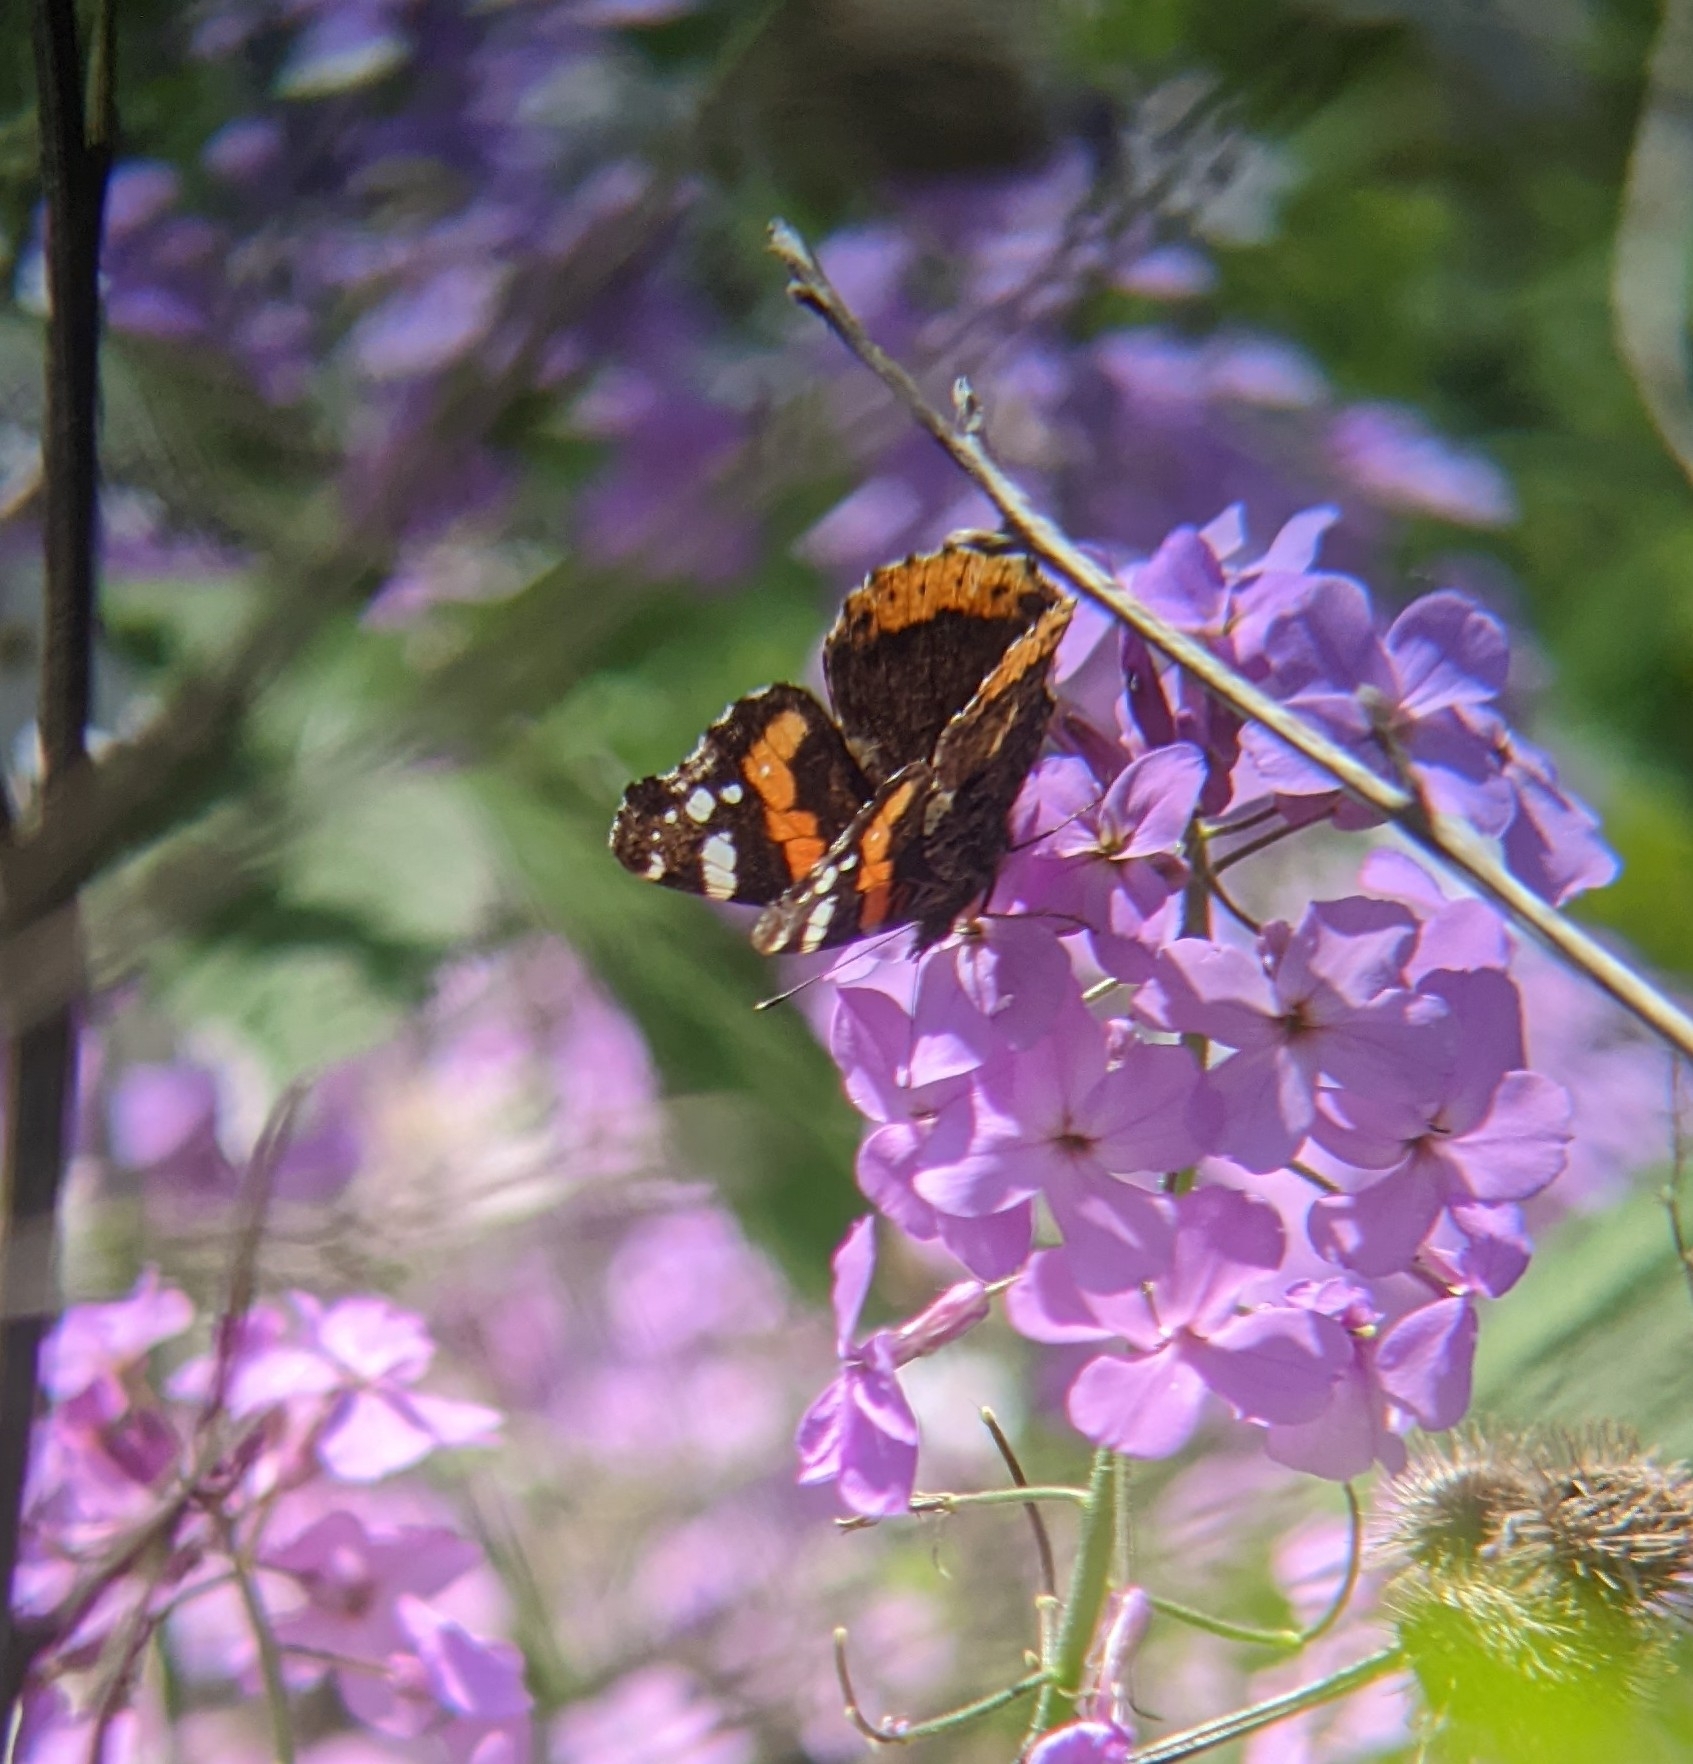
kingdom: Animalia
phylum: Arthropoda
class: Insecta
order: Lepidoptera
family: Nymphalidae
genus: Vanessa
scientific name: Vanessa atalanta
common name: Red admiral
